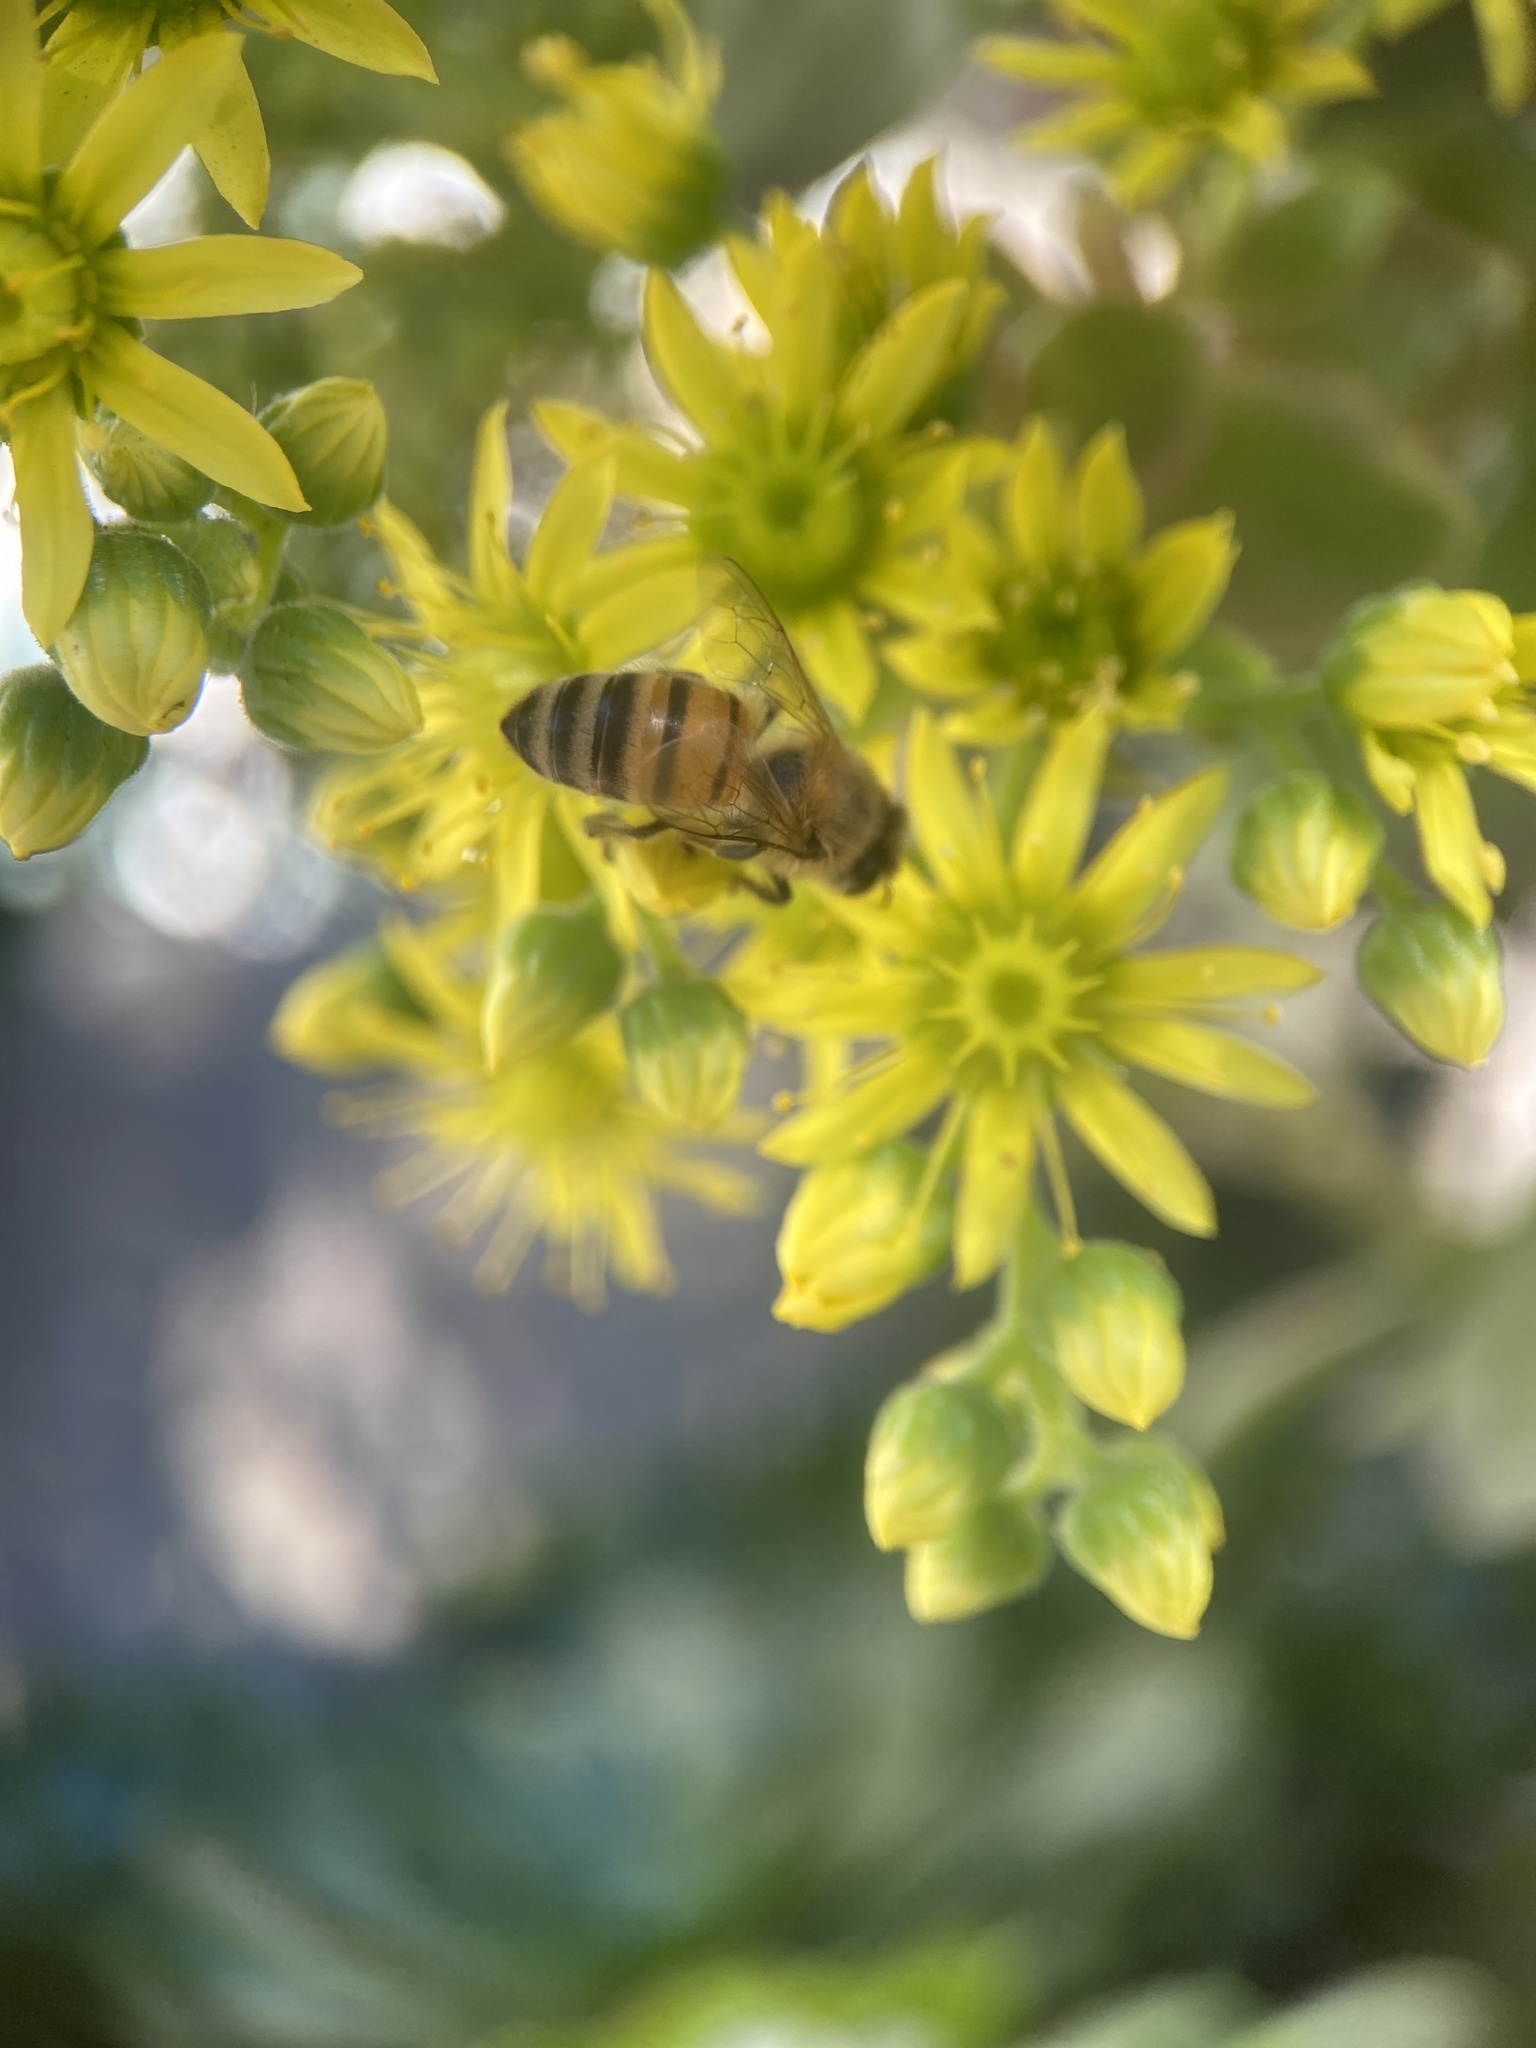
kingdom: Animalia
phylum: Arthropoda
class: Insecta
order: Hymenoptera
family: Apidae
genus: Apis
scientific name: Apis mellifera
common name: Honey bee
